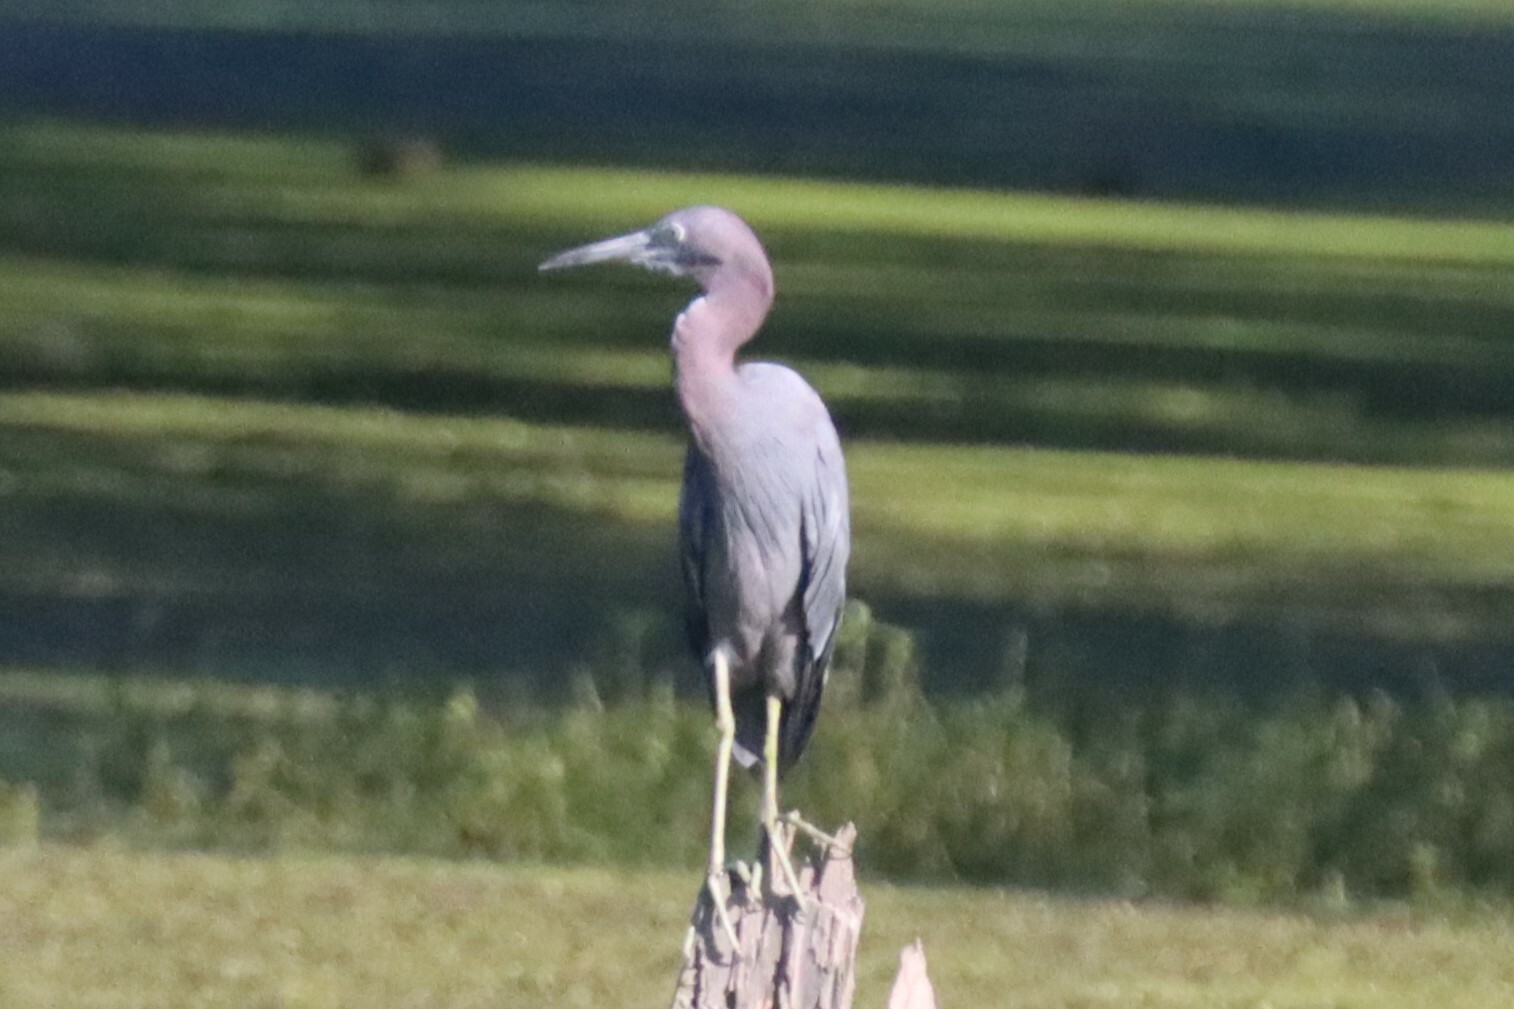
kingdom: Animalia
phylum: Chordata
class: Aves
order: Pelecaniformes
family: Ardeidae
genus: Egretta
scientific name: Egretta caerulea
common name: Little blue heron
